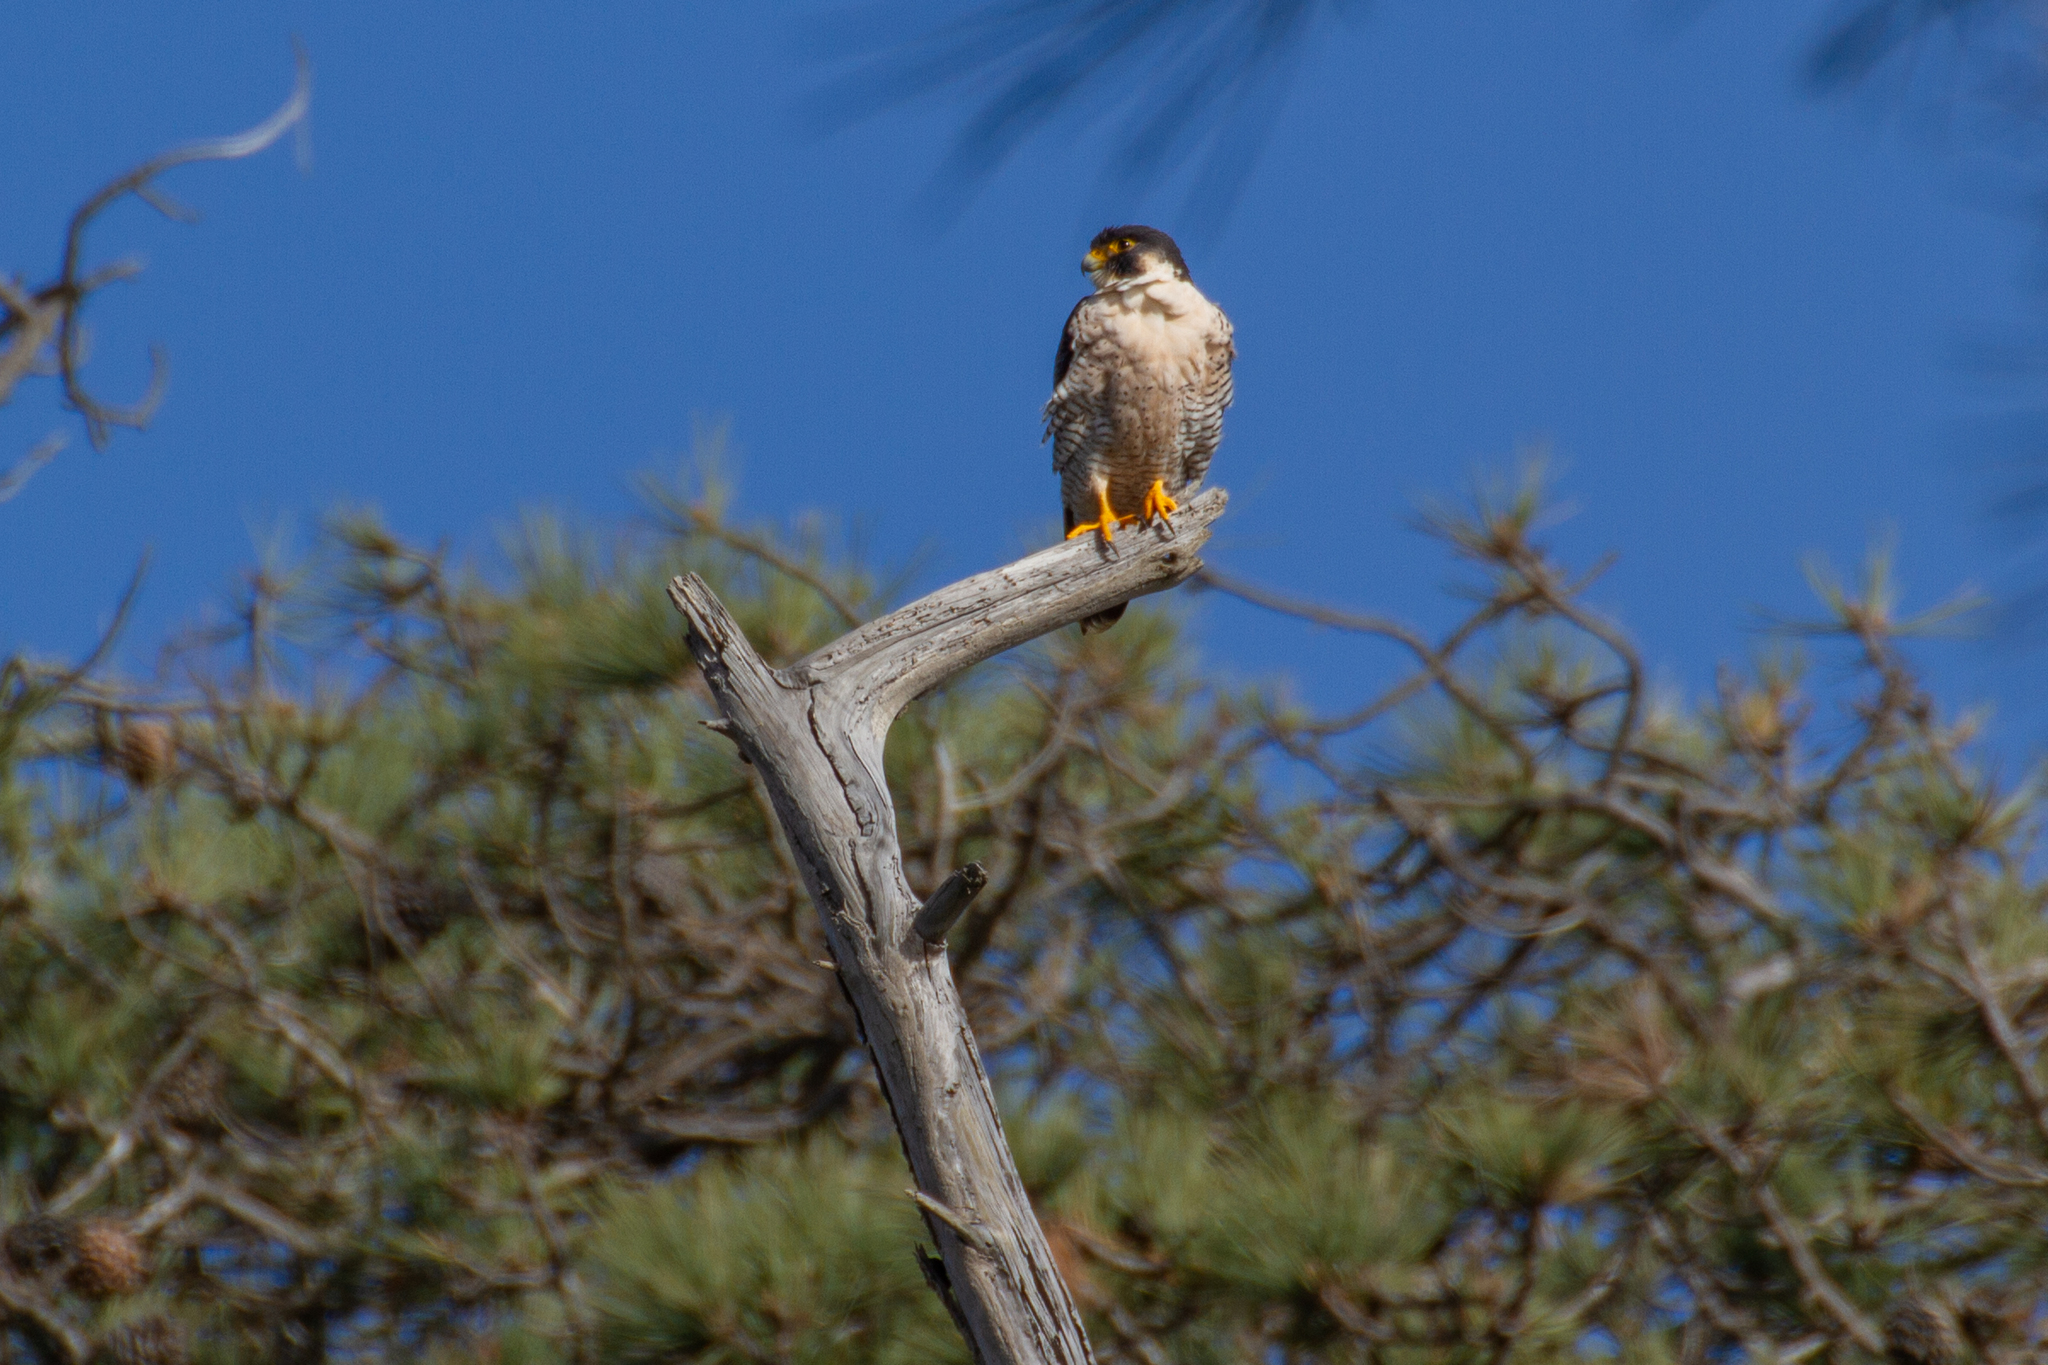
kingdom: Animalia
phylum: Chordata
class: Aves
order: Falconiformes
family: Falconidae
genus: Falco
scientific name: Falco peregrinus
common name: Peregrine falcon
